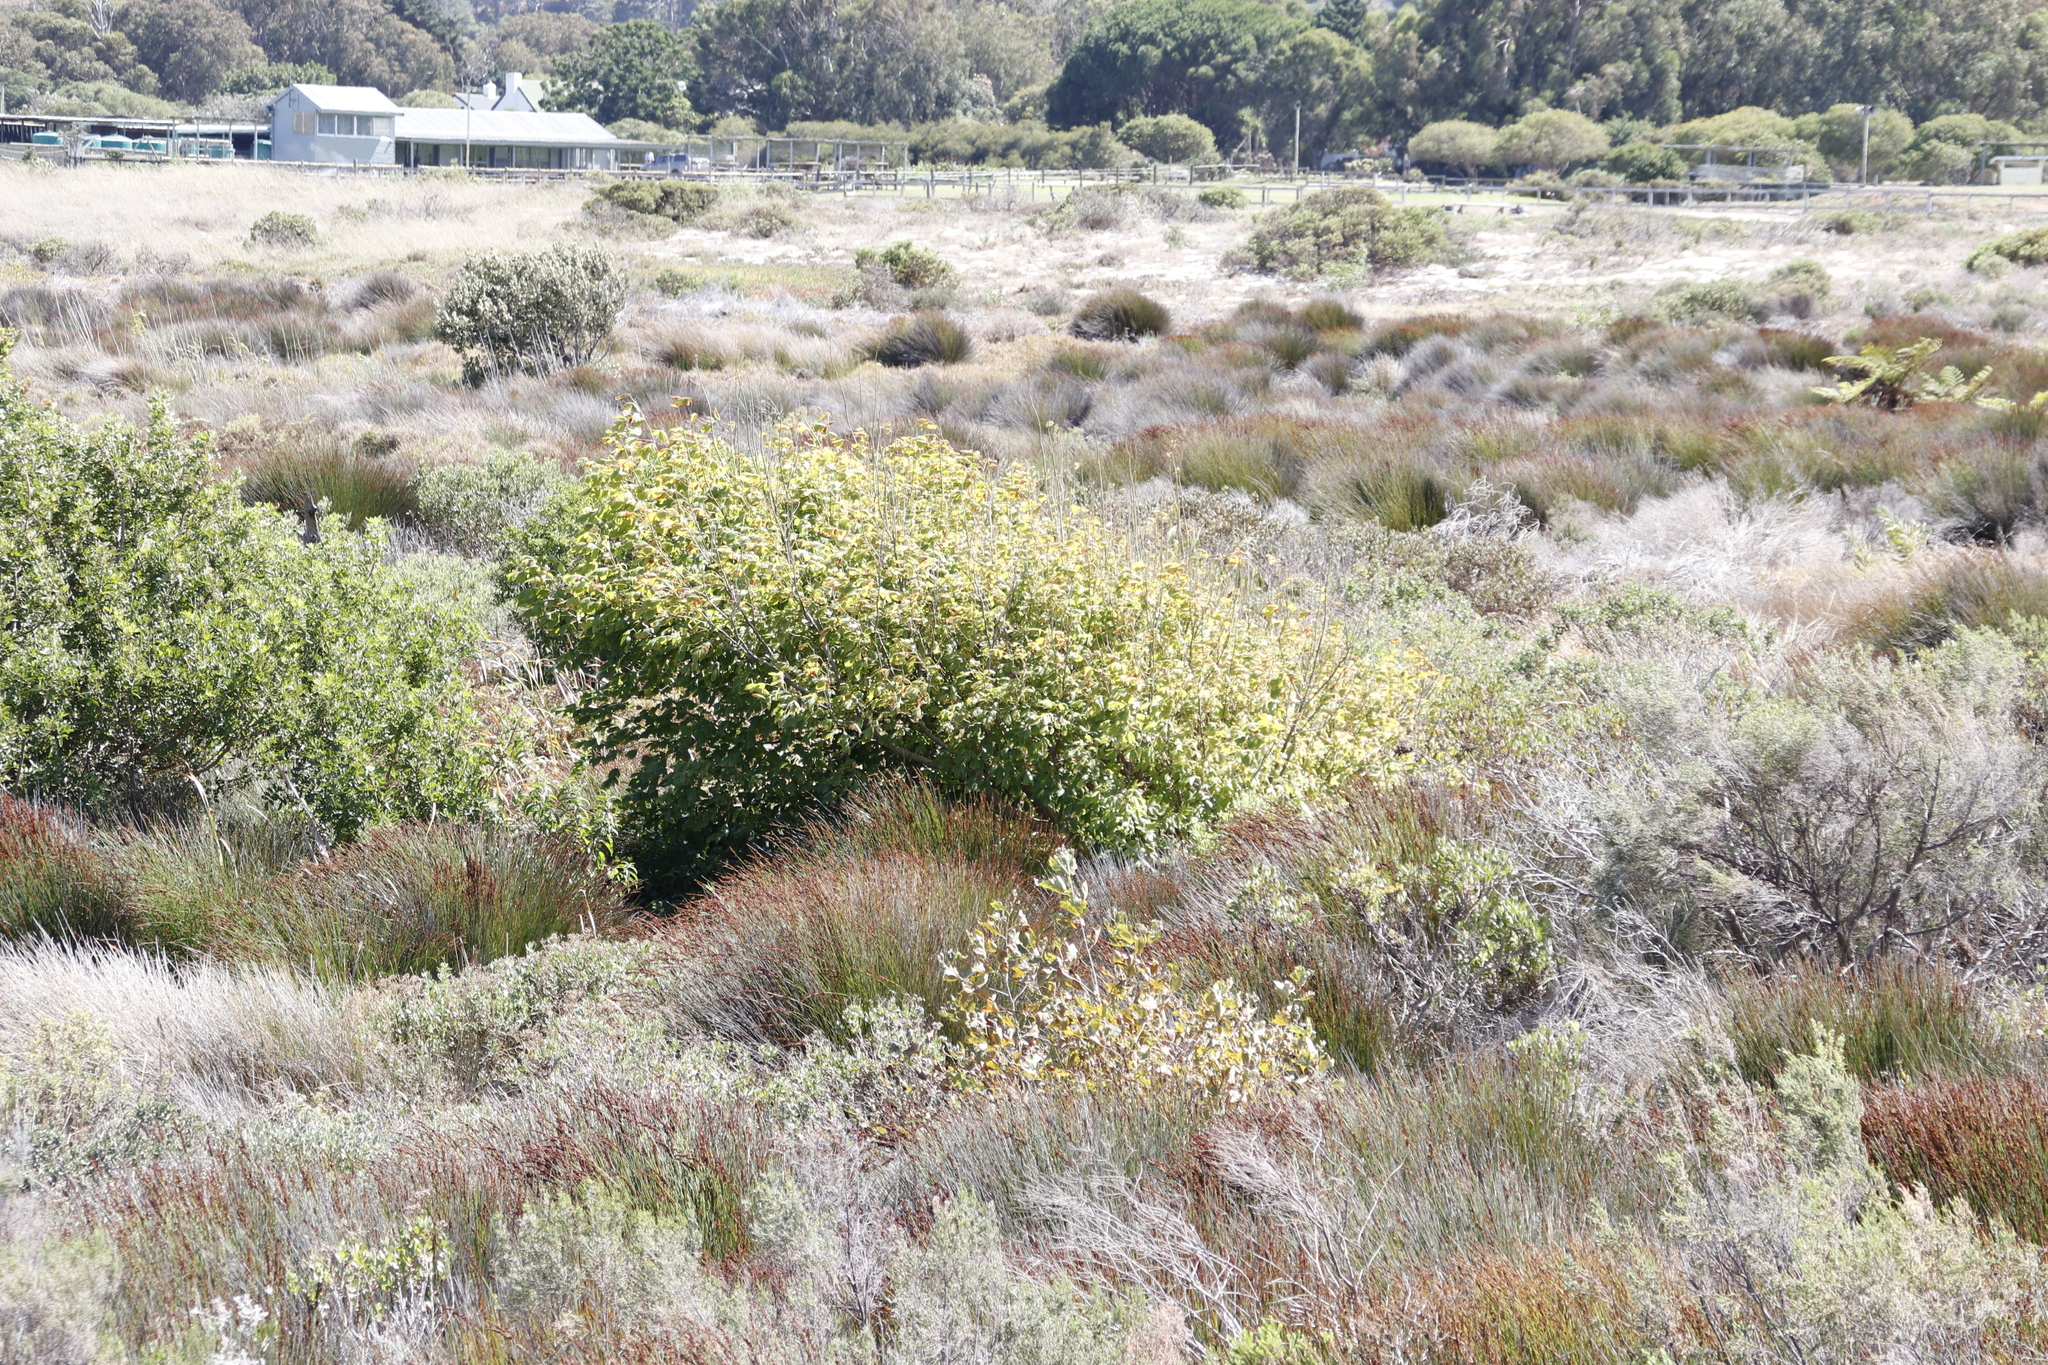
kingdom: Plantae
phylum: Tracheophyta
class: Magnoliopsida
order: Sapindales
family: Sapindaceae
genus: Acer
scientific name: Acer negundo
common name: Ashleaf maple
